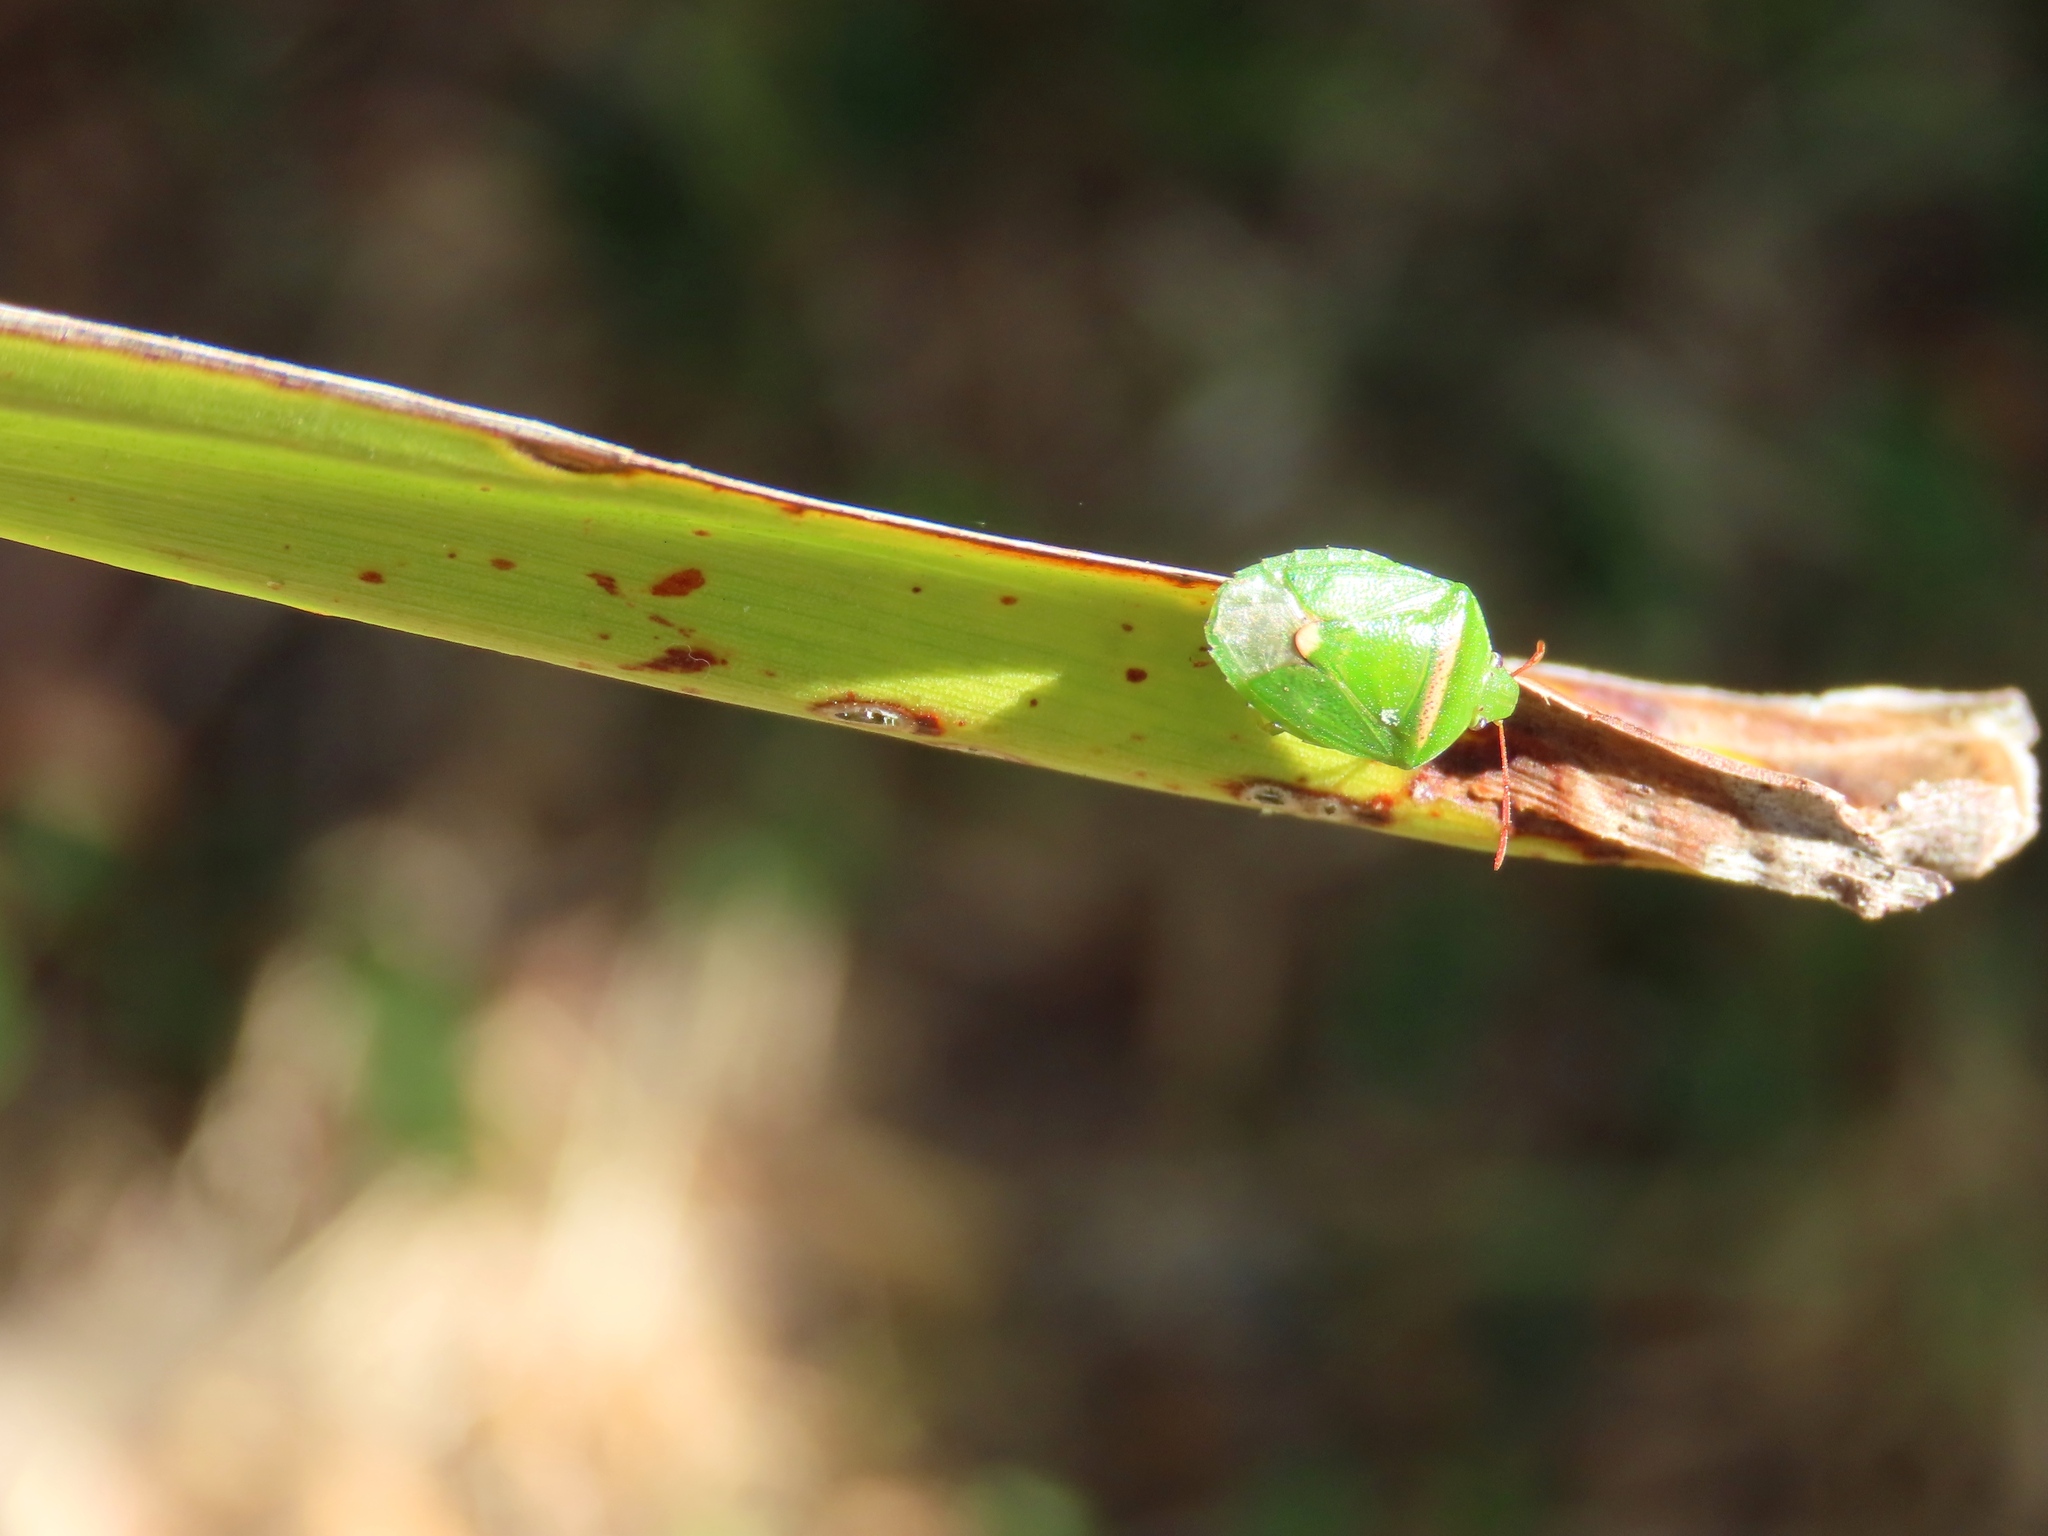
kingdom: Animalia
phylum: Arthropoda
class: Insecta
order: Hemiptera
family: Pentatomidae
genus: Ocirrhoe
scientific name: Ocirrhoe
